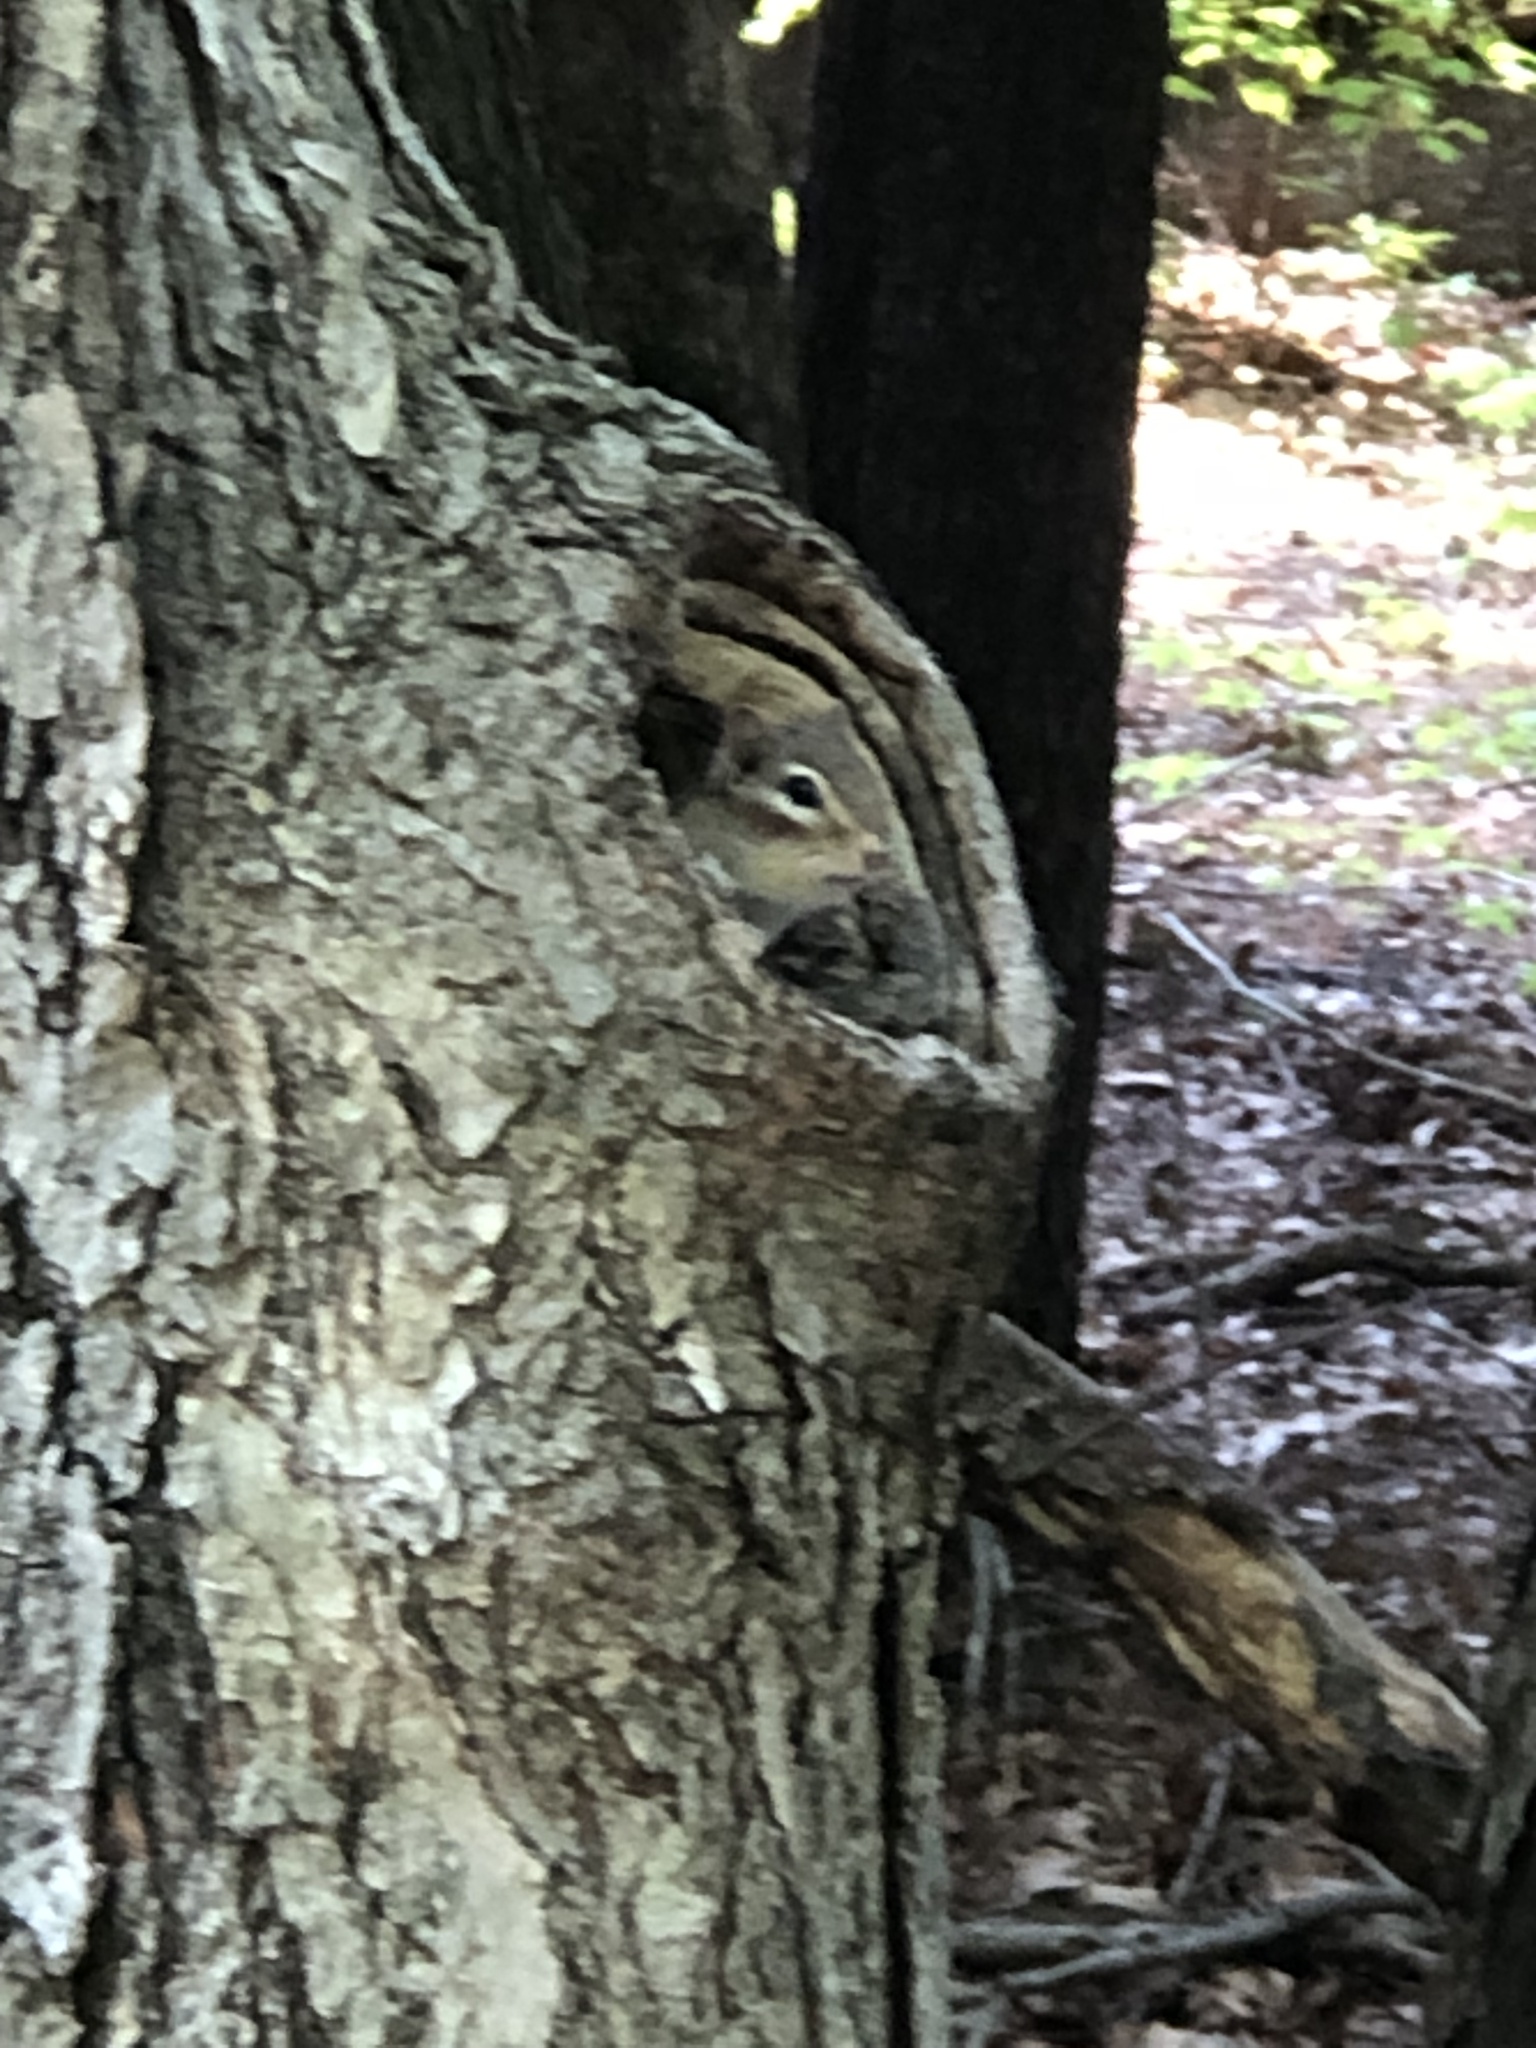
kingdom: Animalia
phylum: Chordata
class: Mammalia
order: Rodentia
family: Sciuridae
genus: Tamias
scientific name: Tamias striatus
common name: Eastern chipmunk
